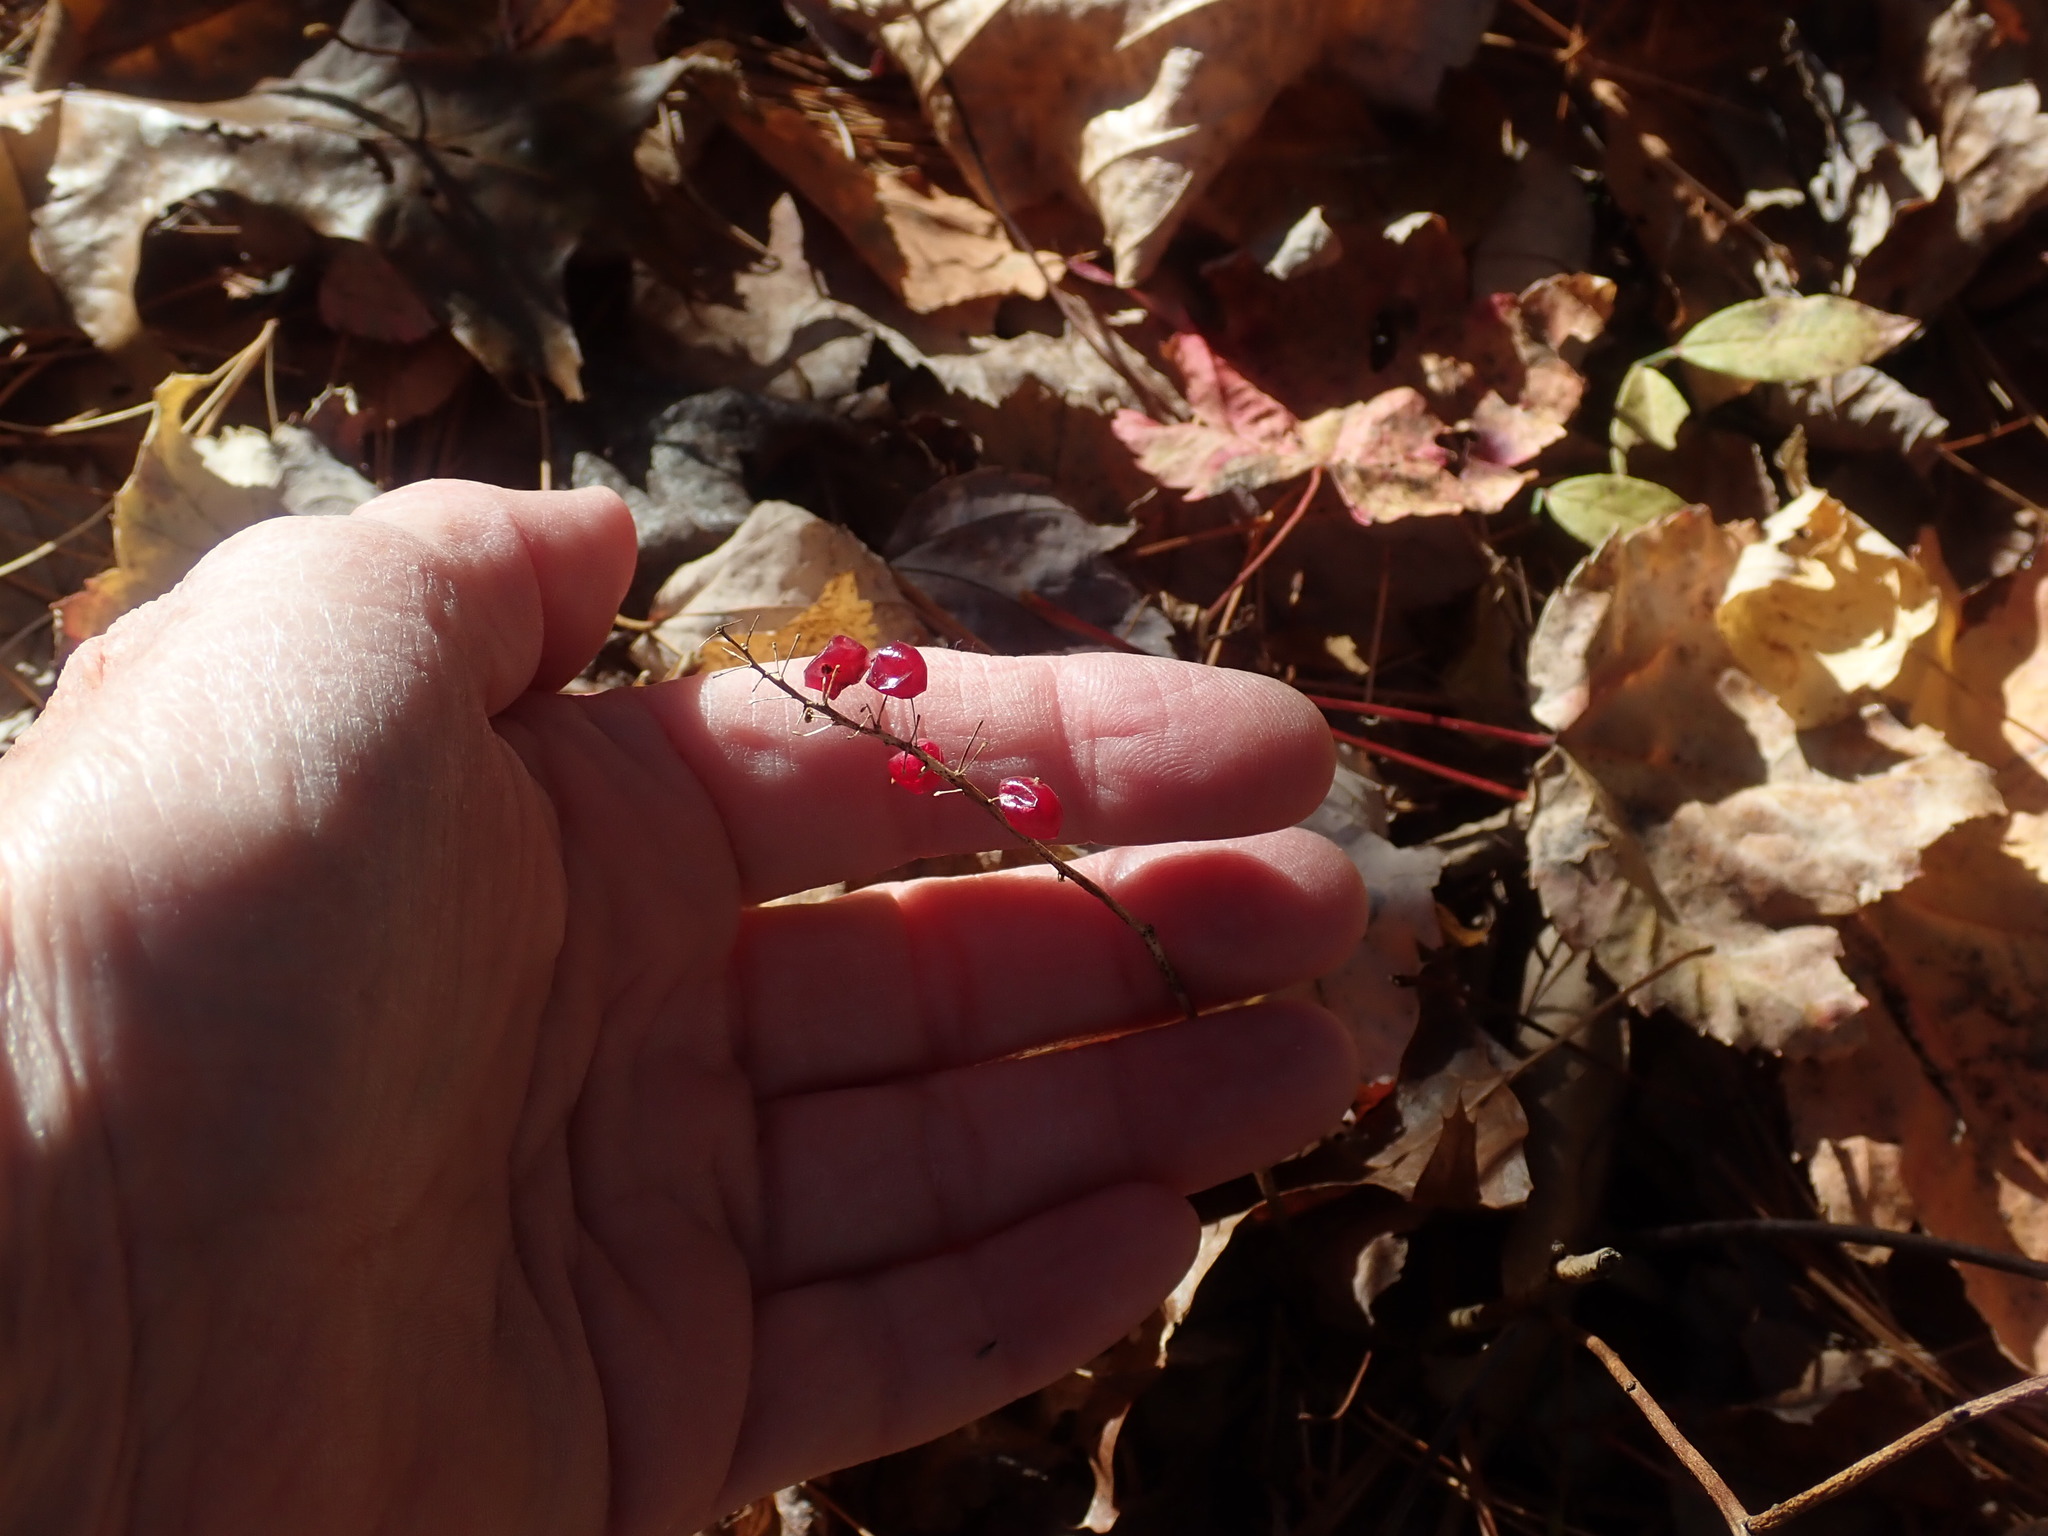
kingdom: Plantae
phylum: Tracheophyta
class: Liliopsida
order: Asparagales
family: Asparagaceae
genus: Maianthemum
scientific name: Maianthemum canadense
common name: False lily-of-the-valley
